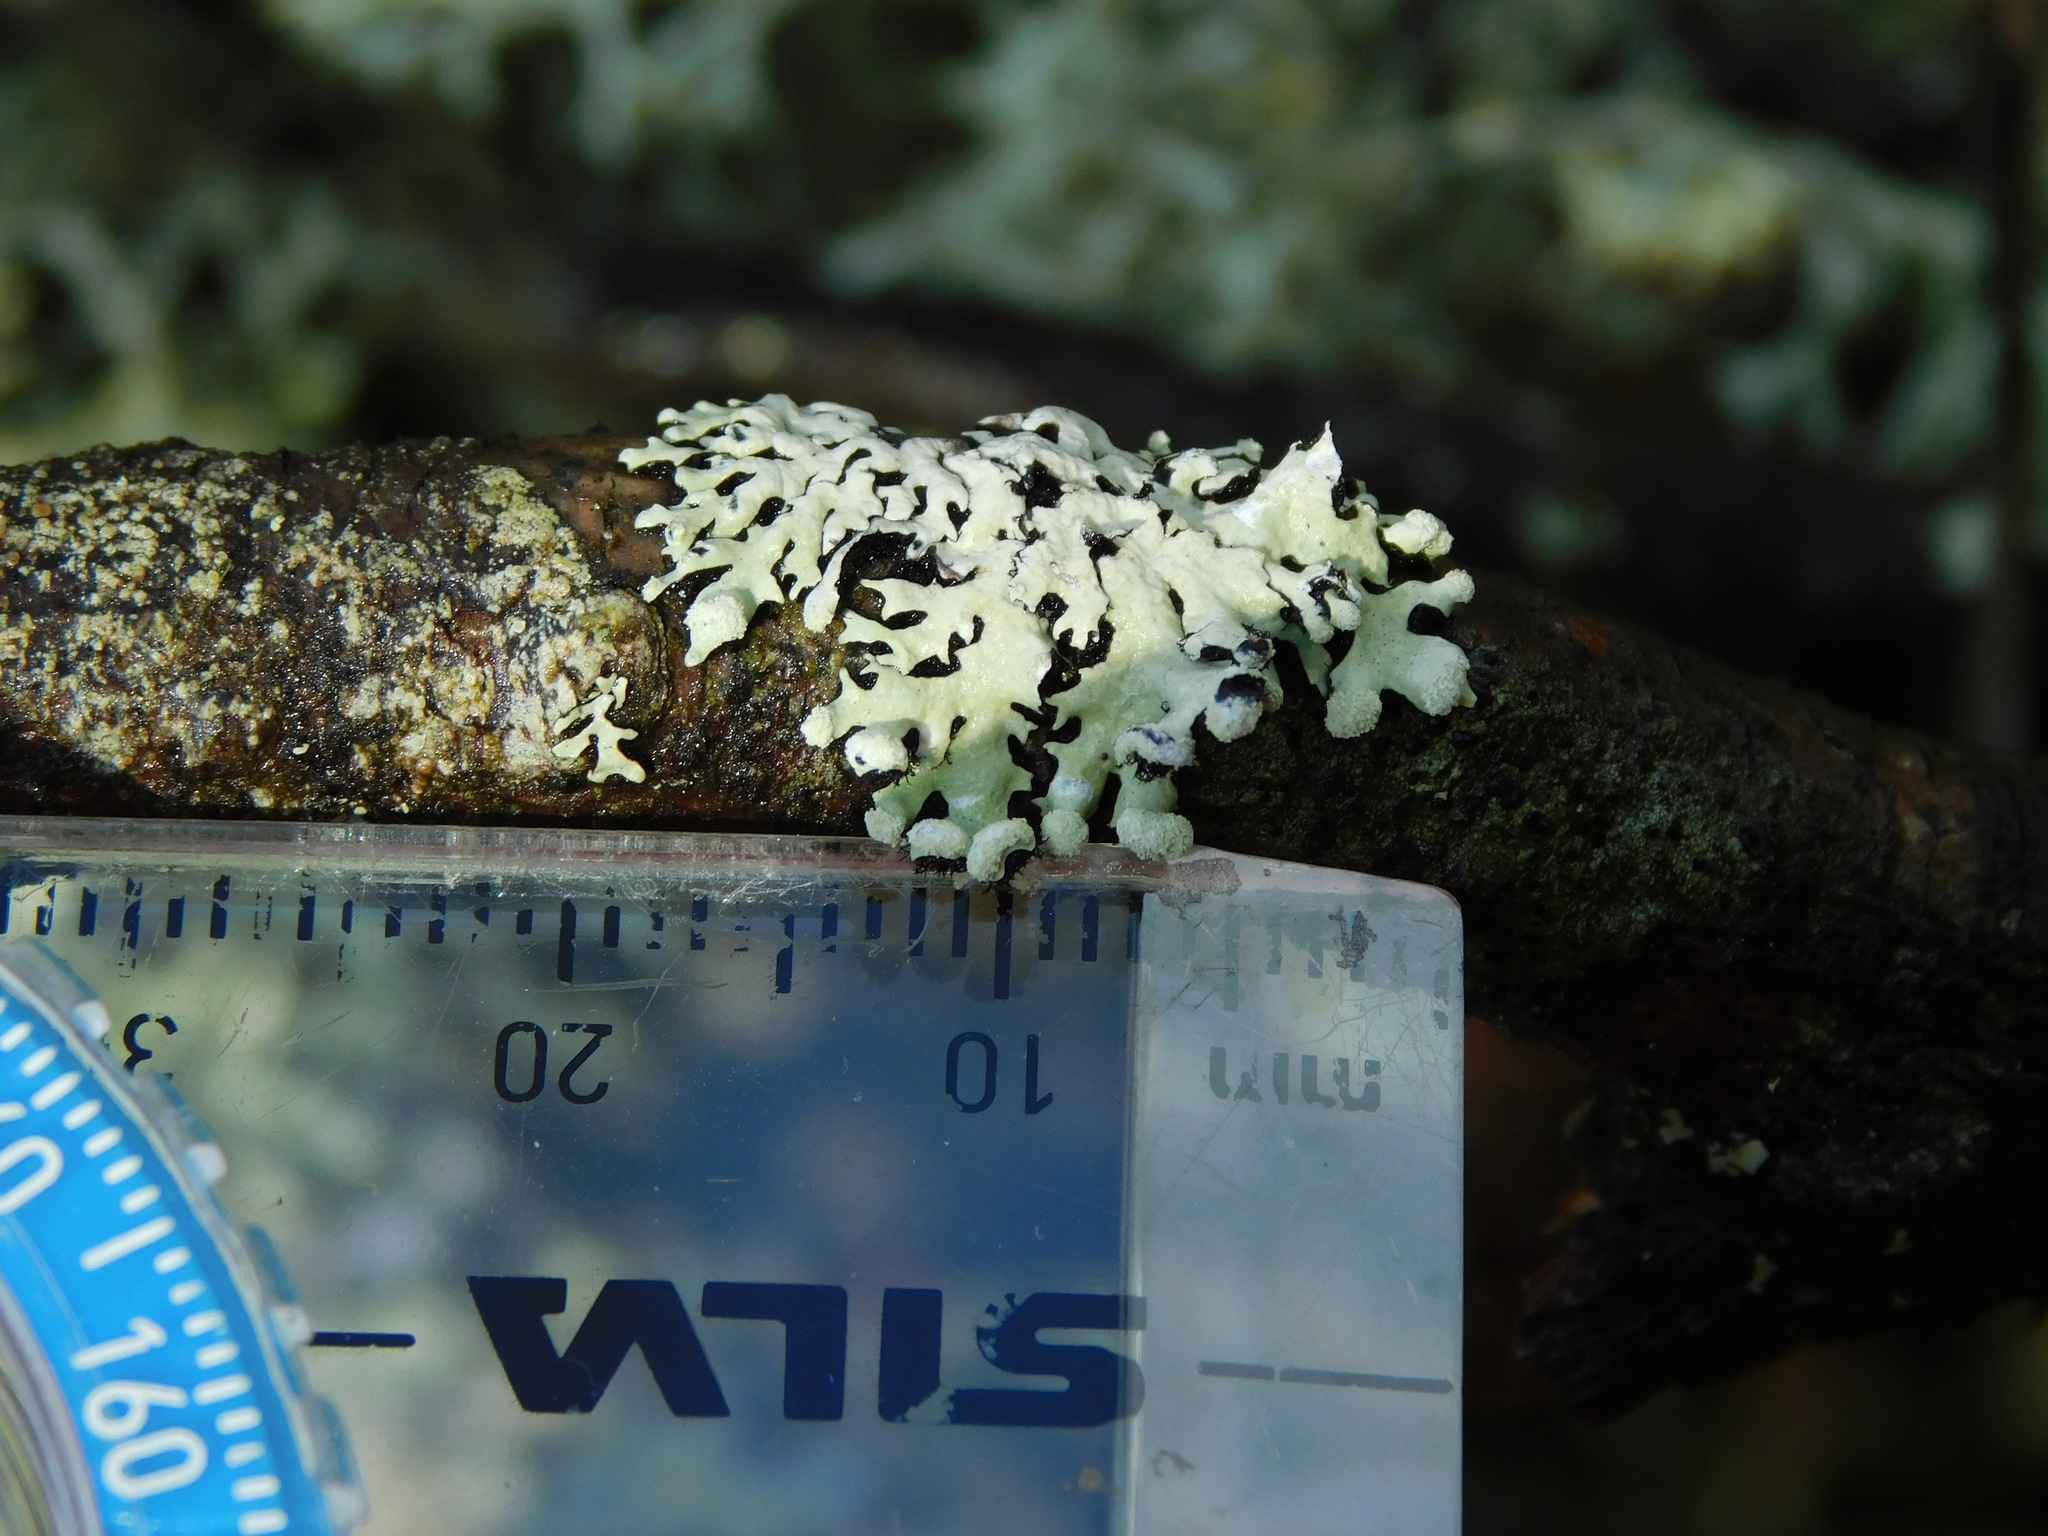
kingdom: Fungi
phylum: Ascomycota
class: Lecanoromycetes
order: Lecanorales
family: Parmeliaceae
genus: Myelochroa
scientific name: Myelochroa metarevoluta
